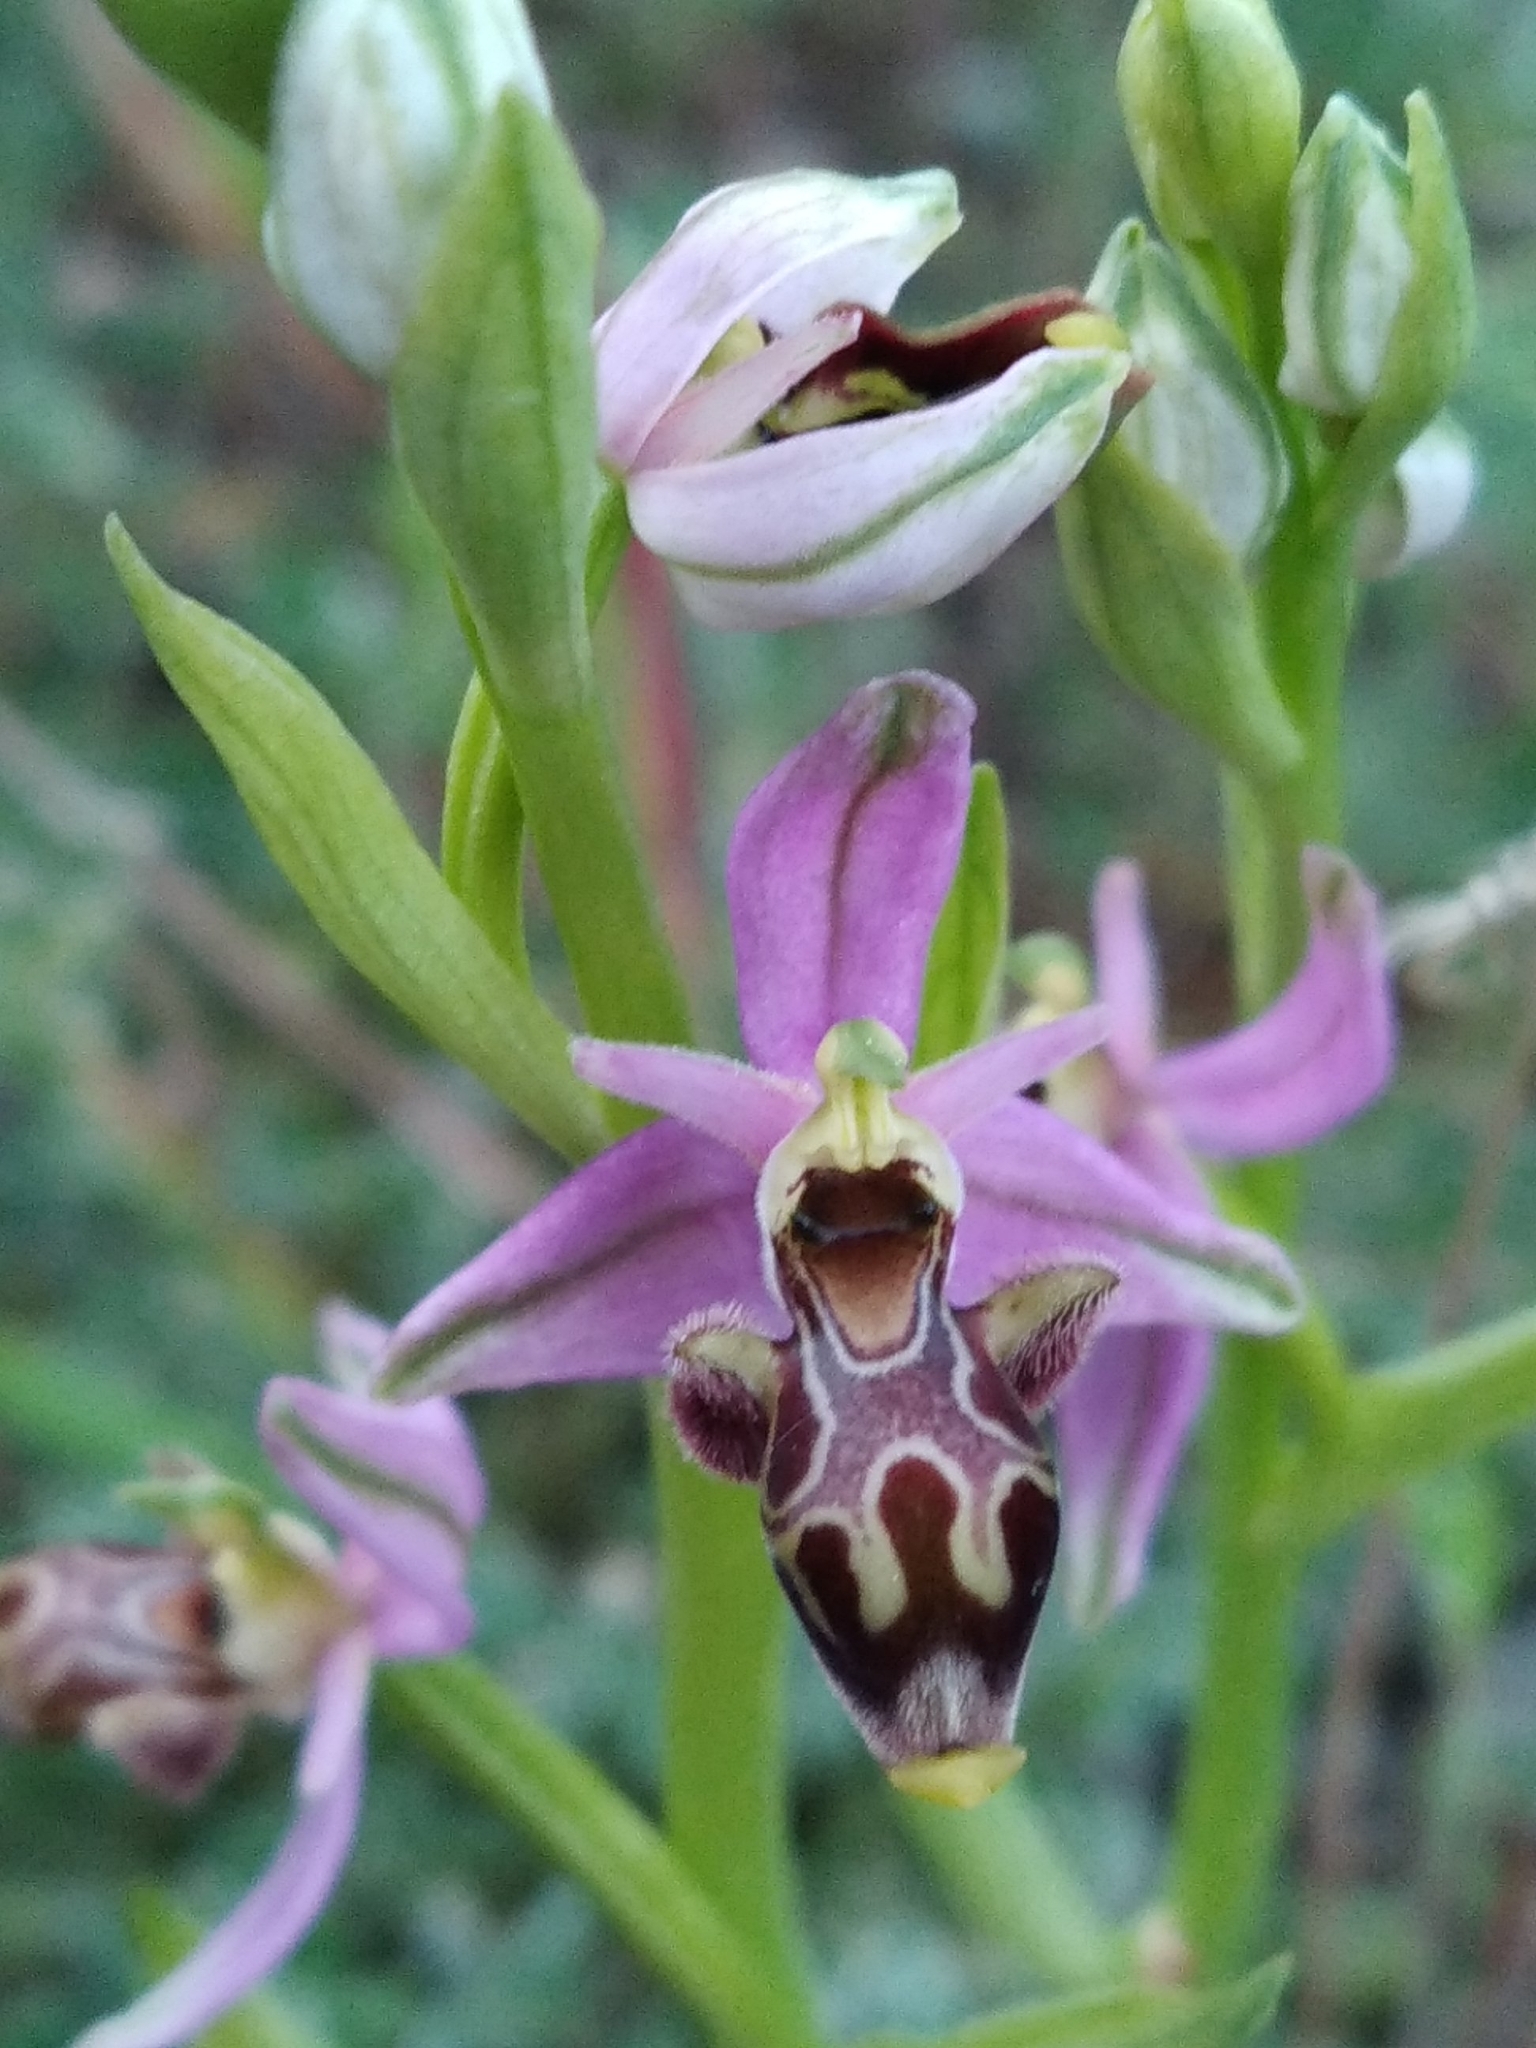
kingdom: Plantae
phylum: Tracheophyta
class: Liliopsida
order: Asparagales
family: Orchidaceae
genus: Ophrys
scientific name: Ophrys scolopax
